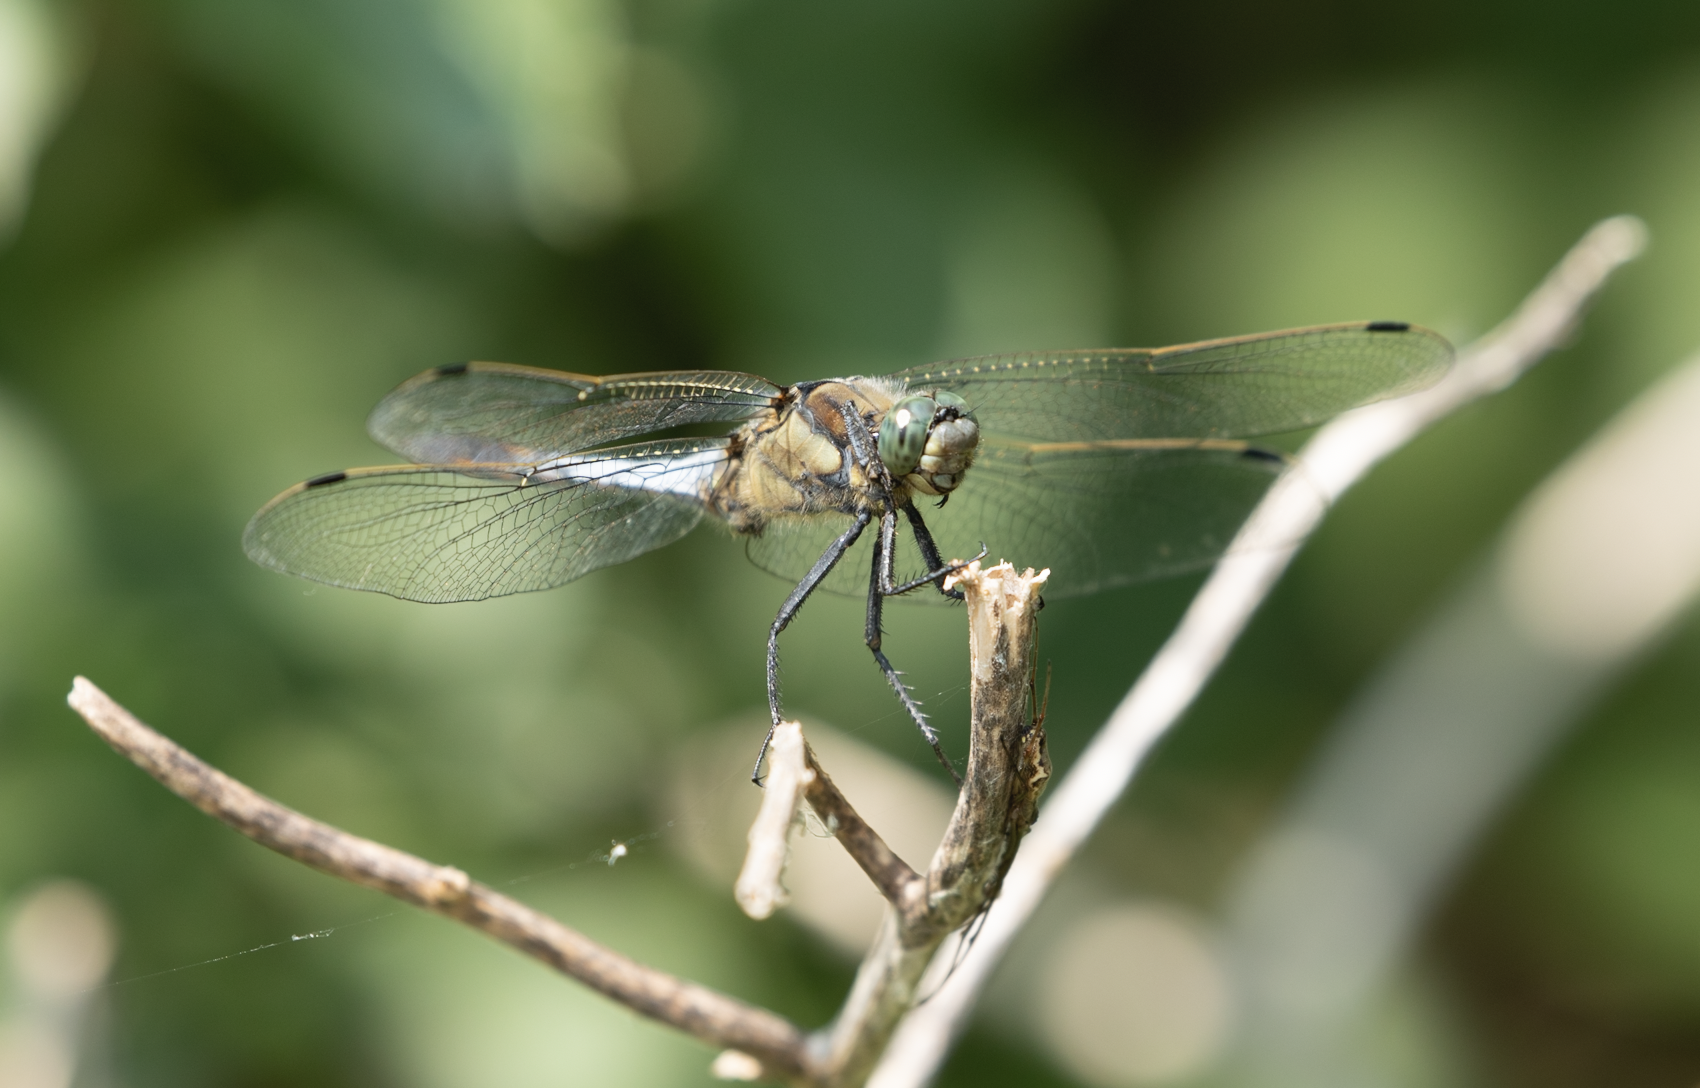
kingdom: Animalia
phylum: Arthropoda
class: Insecta
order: Odonata
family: Libellulidae
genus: Orthetrum
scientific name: Orthetrum cancellatum
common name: Black-tailed skimmer
